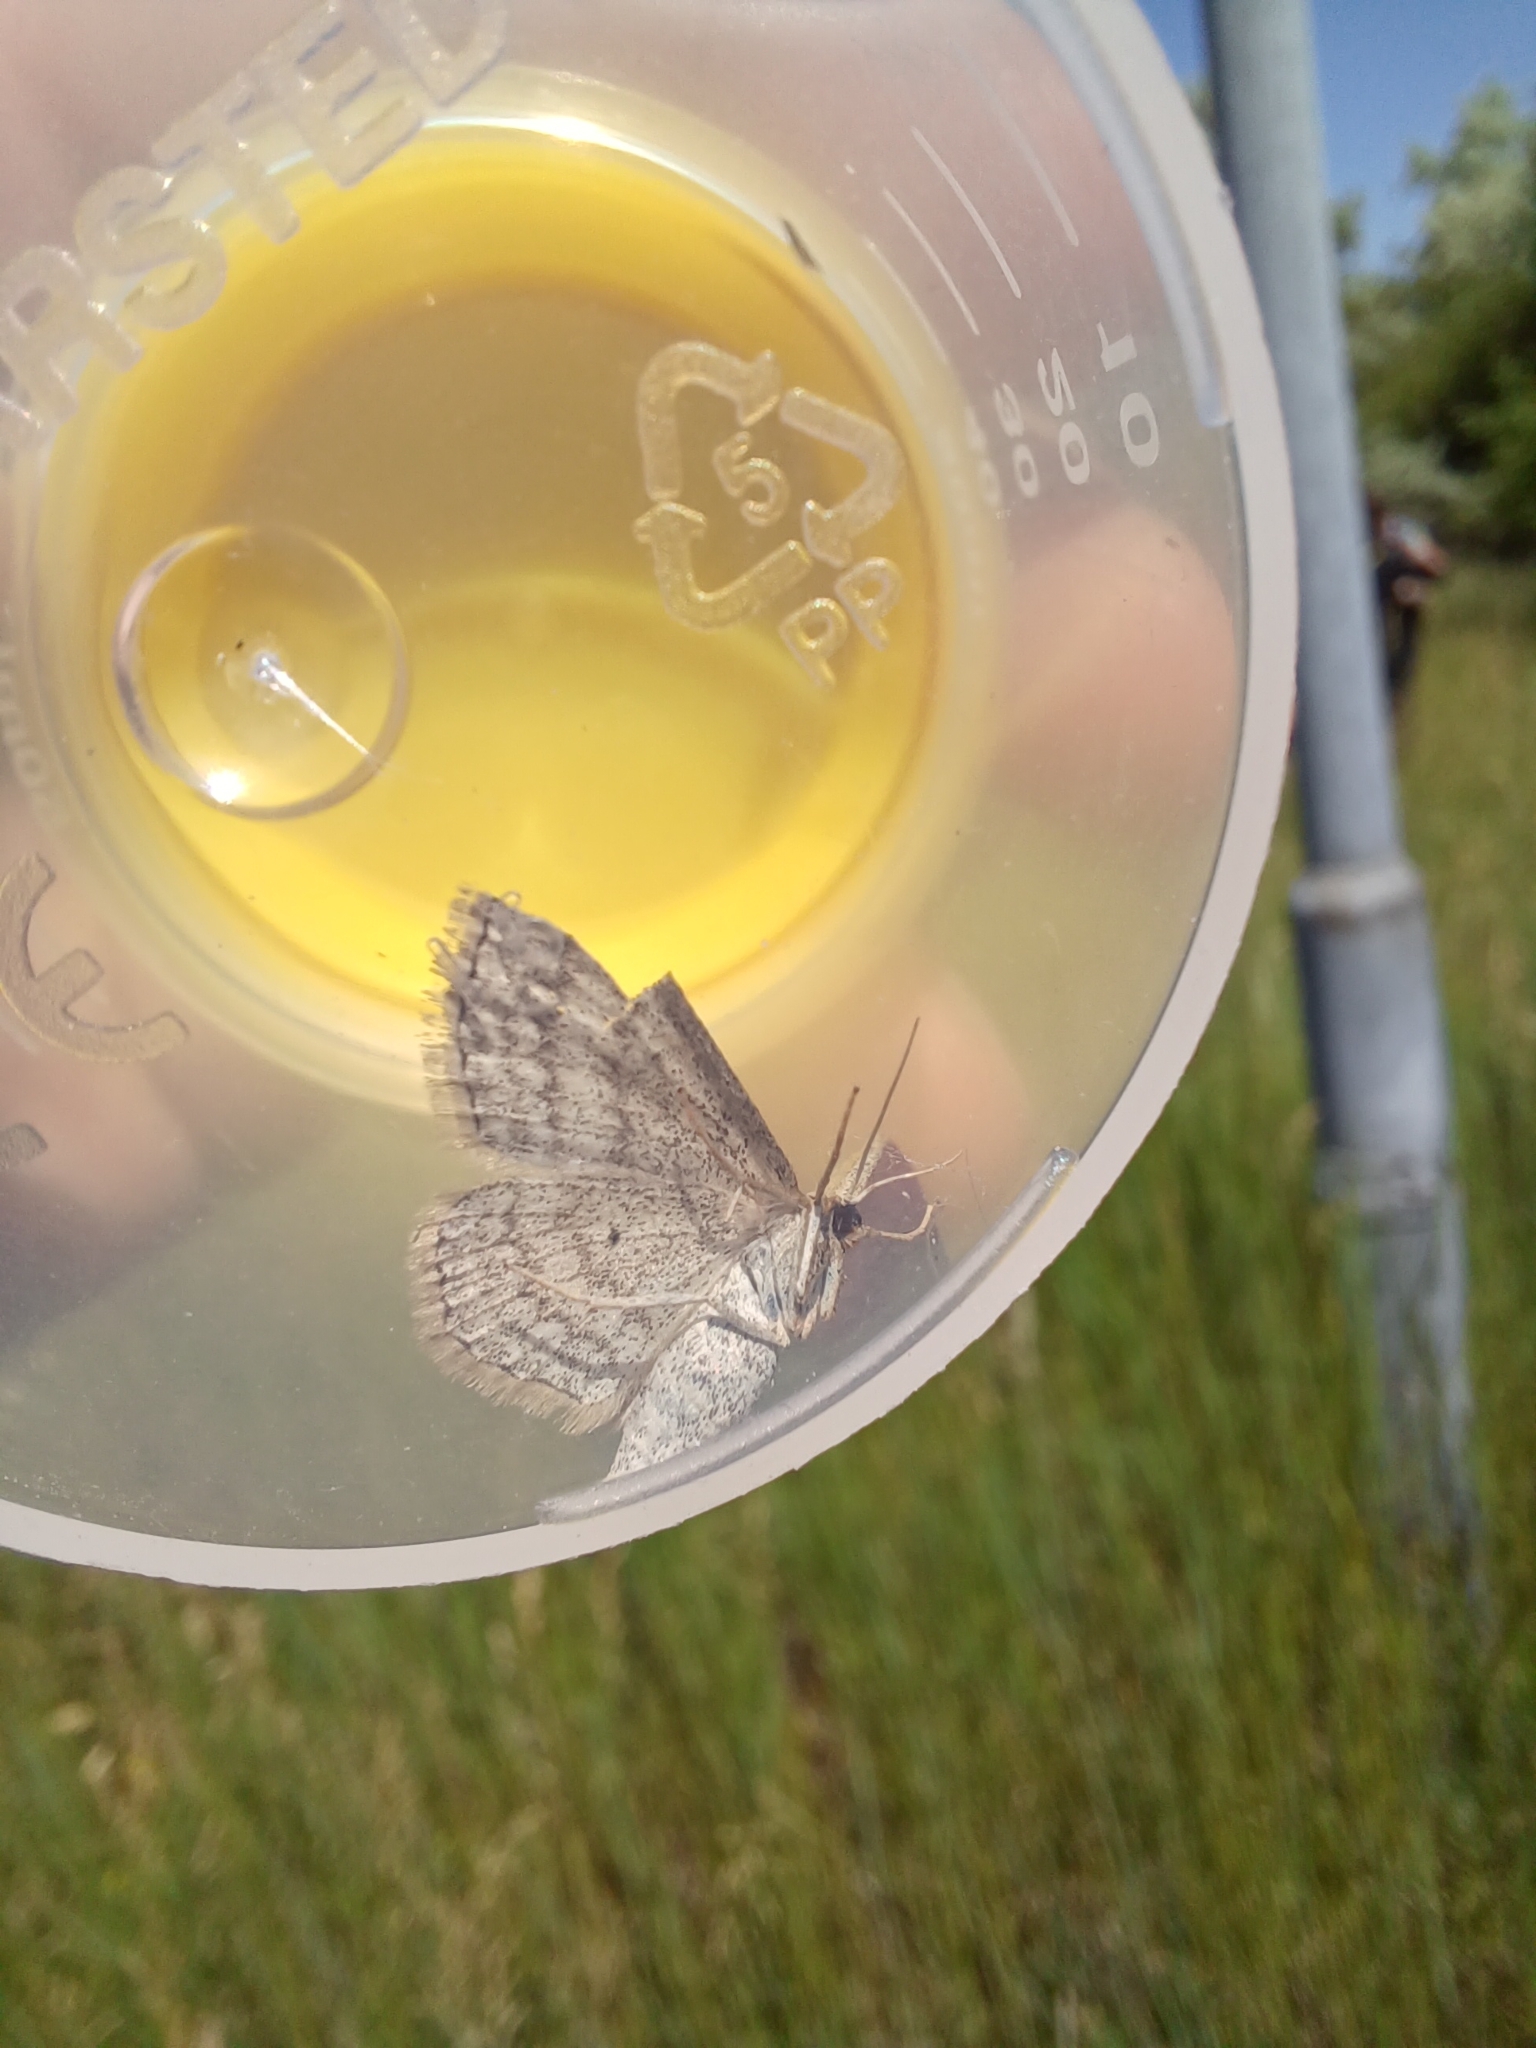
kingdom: Animalia
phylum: Arthropoda
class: Insecta
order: Lepidoptera
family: Geometridae
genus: Scopula
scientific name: Scopula virgulata
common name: Streaked wave
